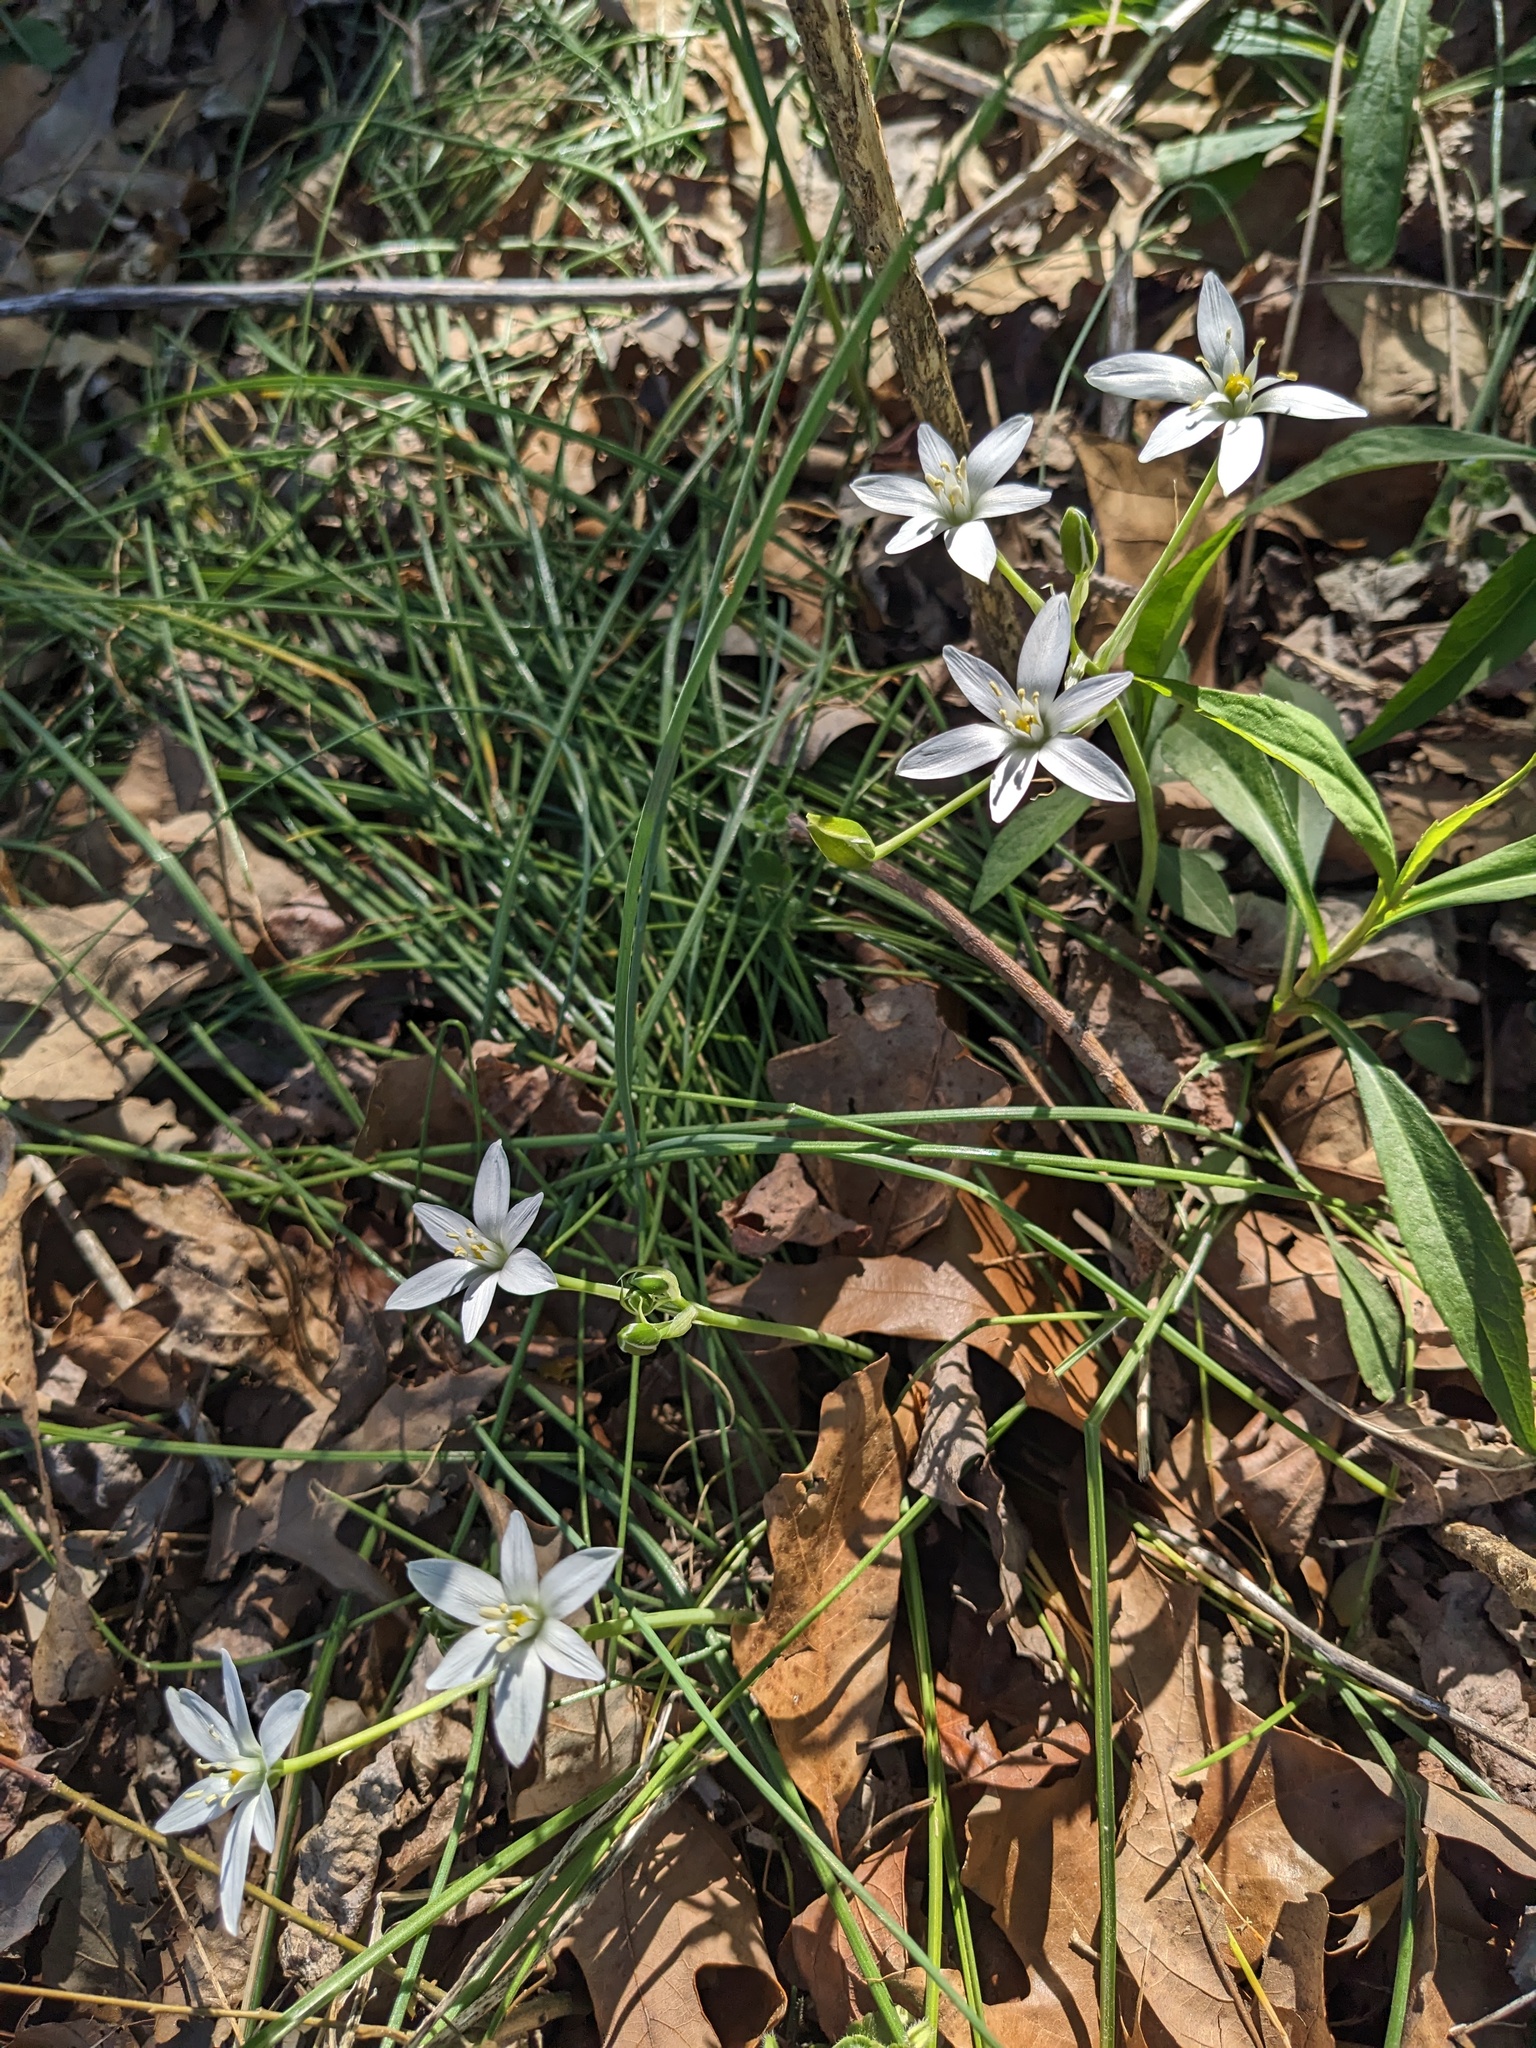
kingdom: Plantae
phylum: Tracheophyta
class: Liliopsida
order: Asparagales
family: Asparagaceae
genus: Ornithogalum
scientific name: Ornithogalum umbellatum
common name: Garden star-of-bethlehem
